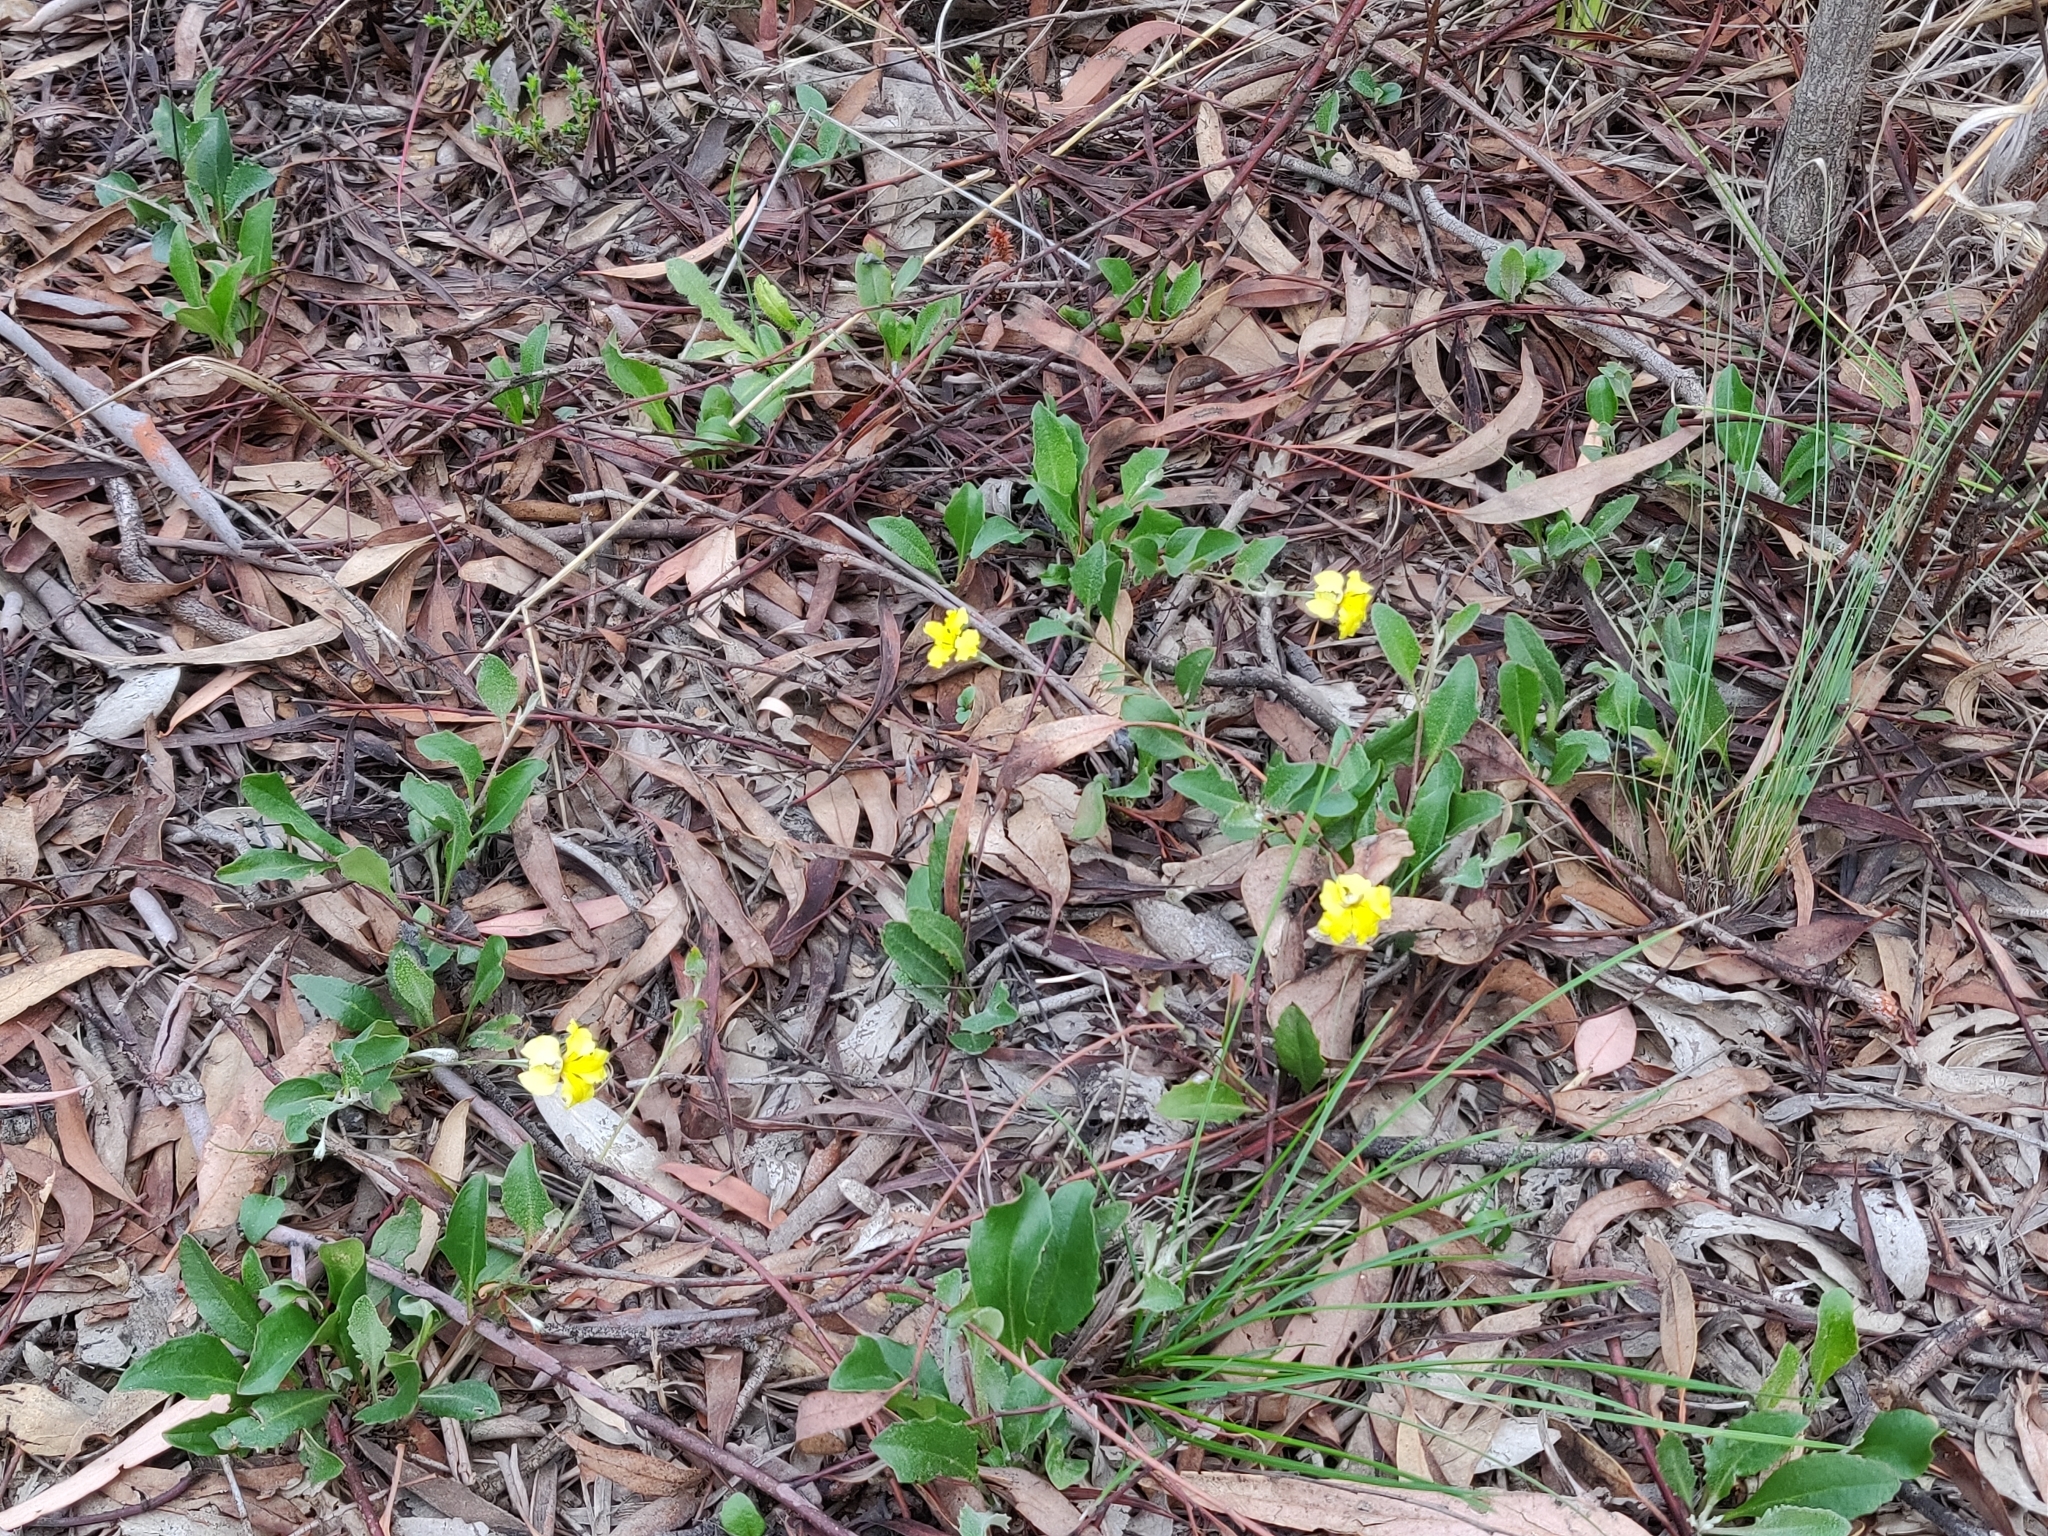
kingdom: Plantae
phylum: Tracheophyta
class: Magnoliopsida
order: Asterales
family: Goodeniaceae
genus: Goodenia
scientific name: Goodenia hederacea
